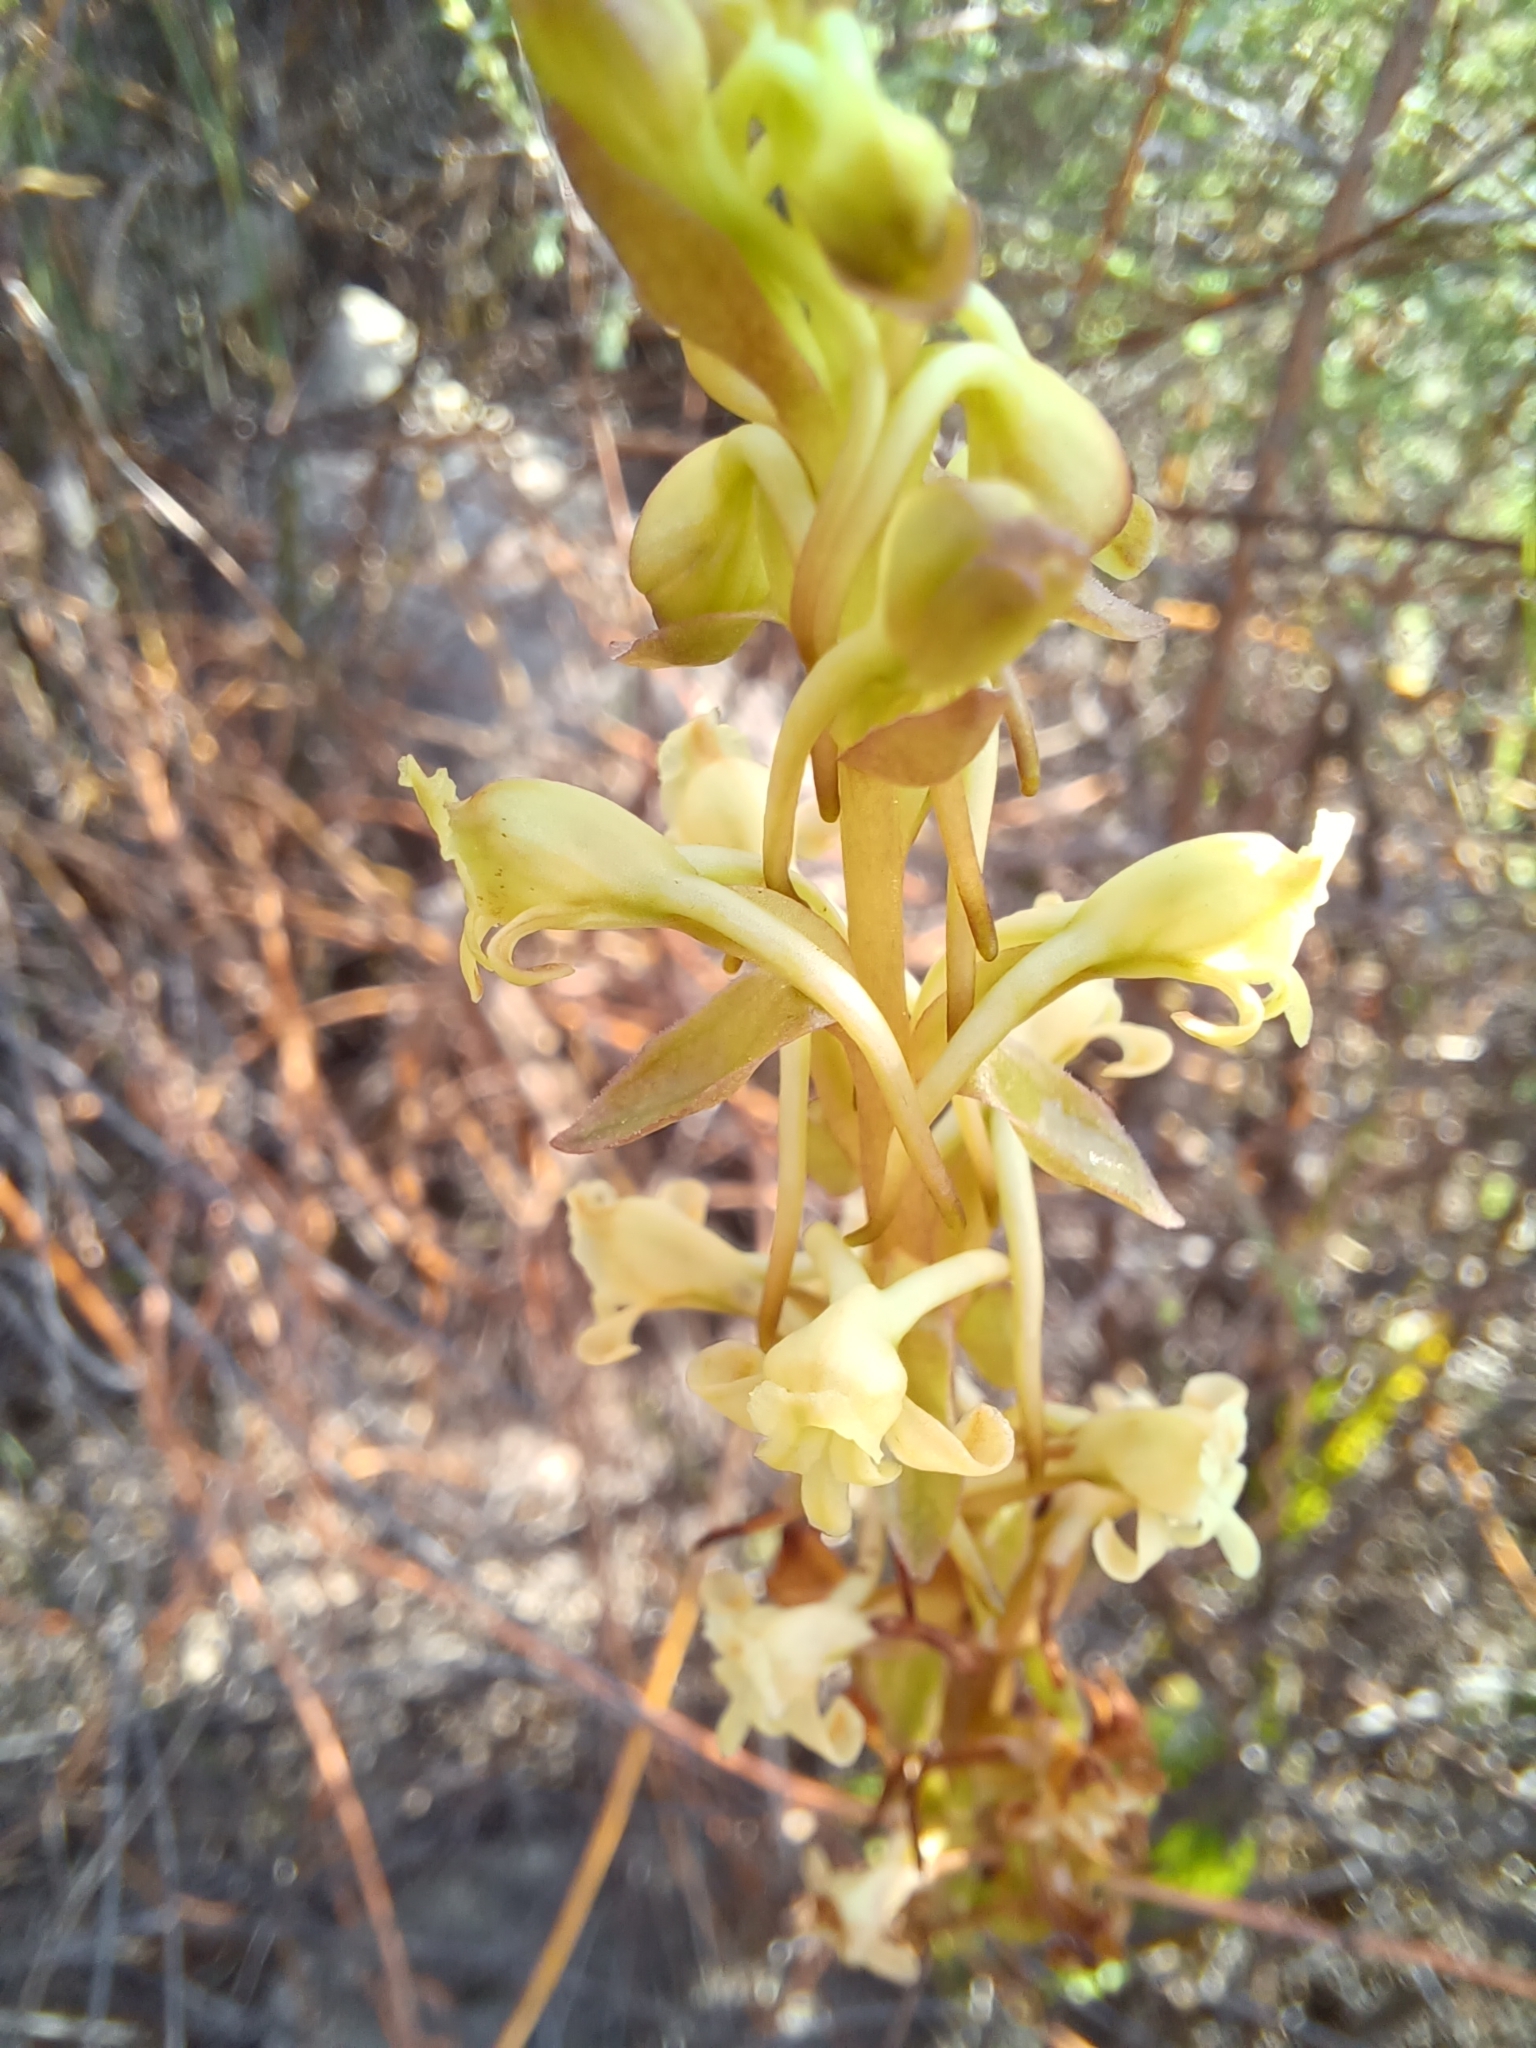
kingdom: Plantae
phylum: Tracheophyta
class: Liliopsida
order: Asparagales
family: Orchidaceae
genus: Satyrium
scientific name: Satyrium humile
